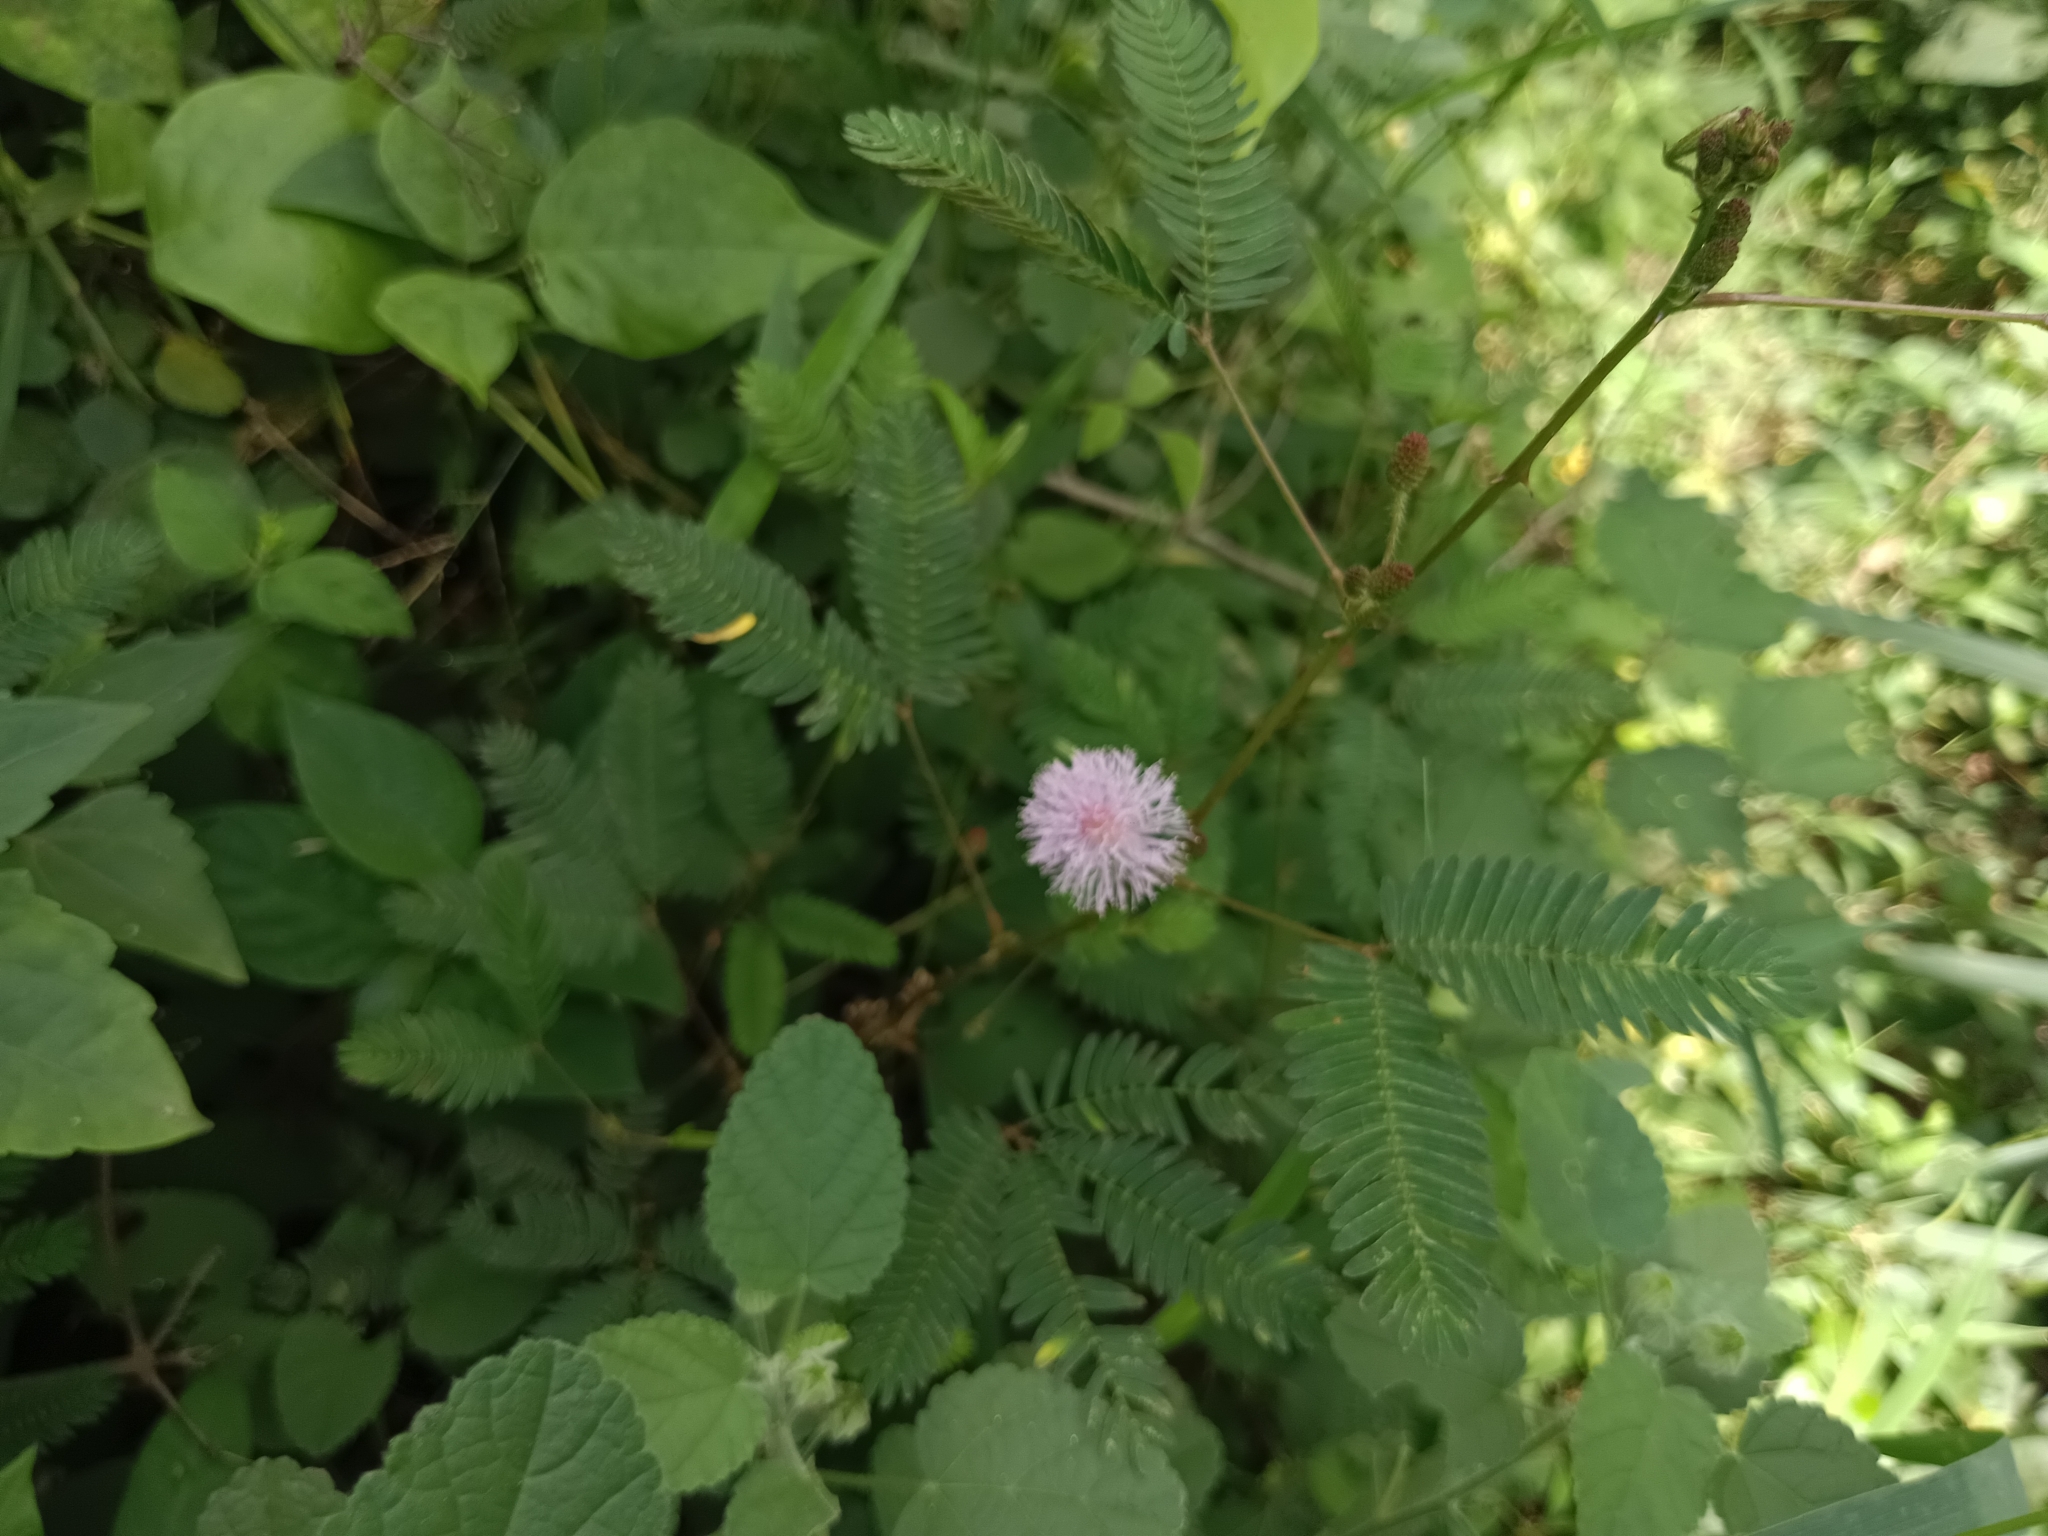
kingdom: Plantae
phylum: Tracheophyta
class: Magnoliopsida
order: Fabales
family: Fabaceae
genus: Mimosa
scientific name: Mimosa pudica
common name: Sensitive plant
